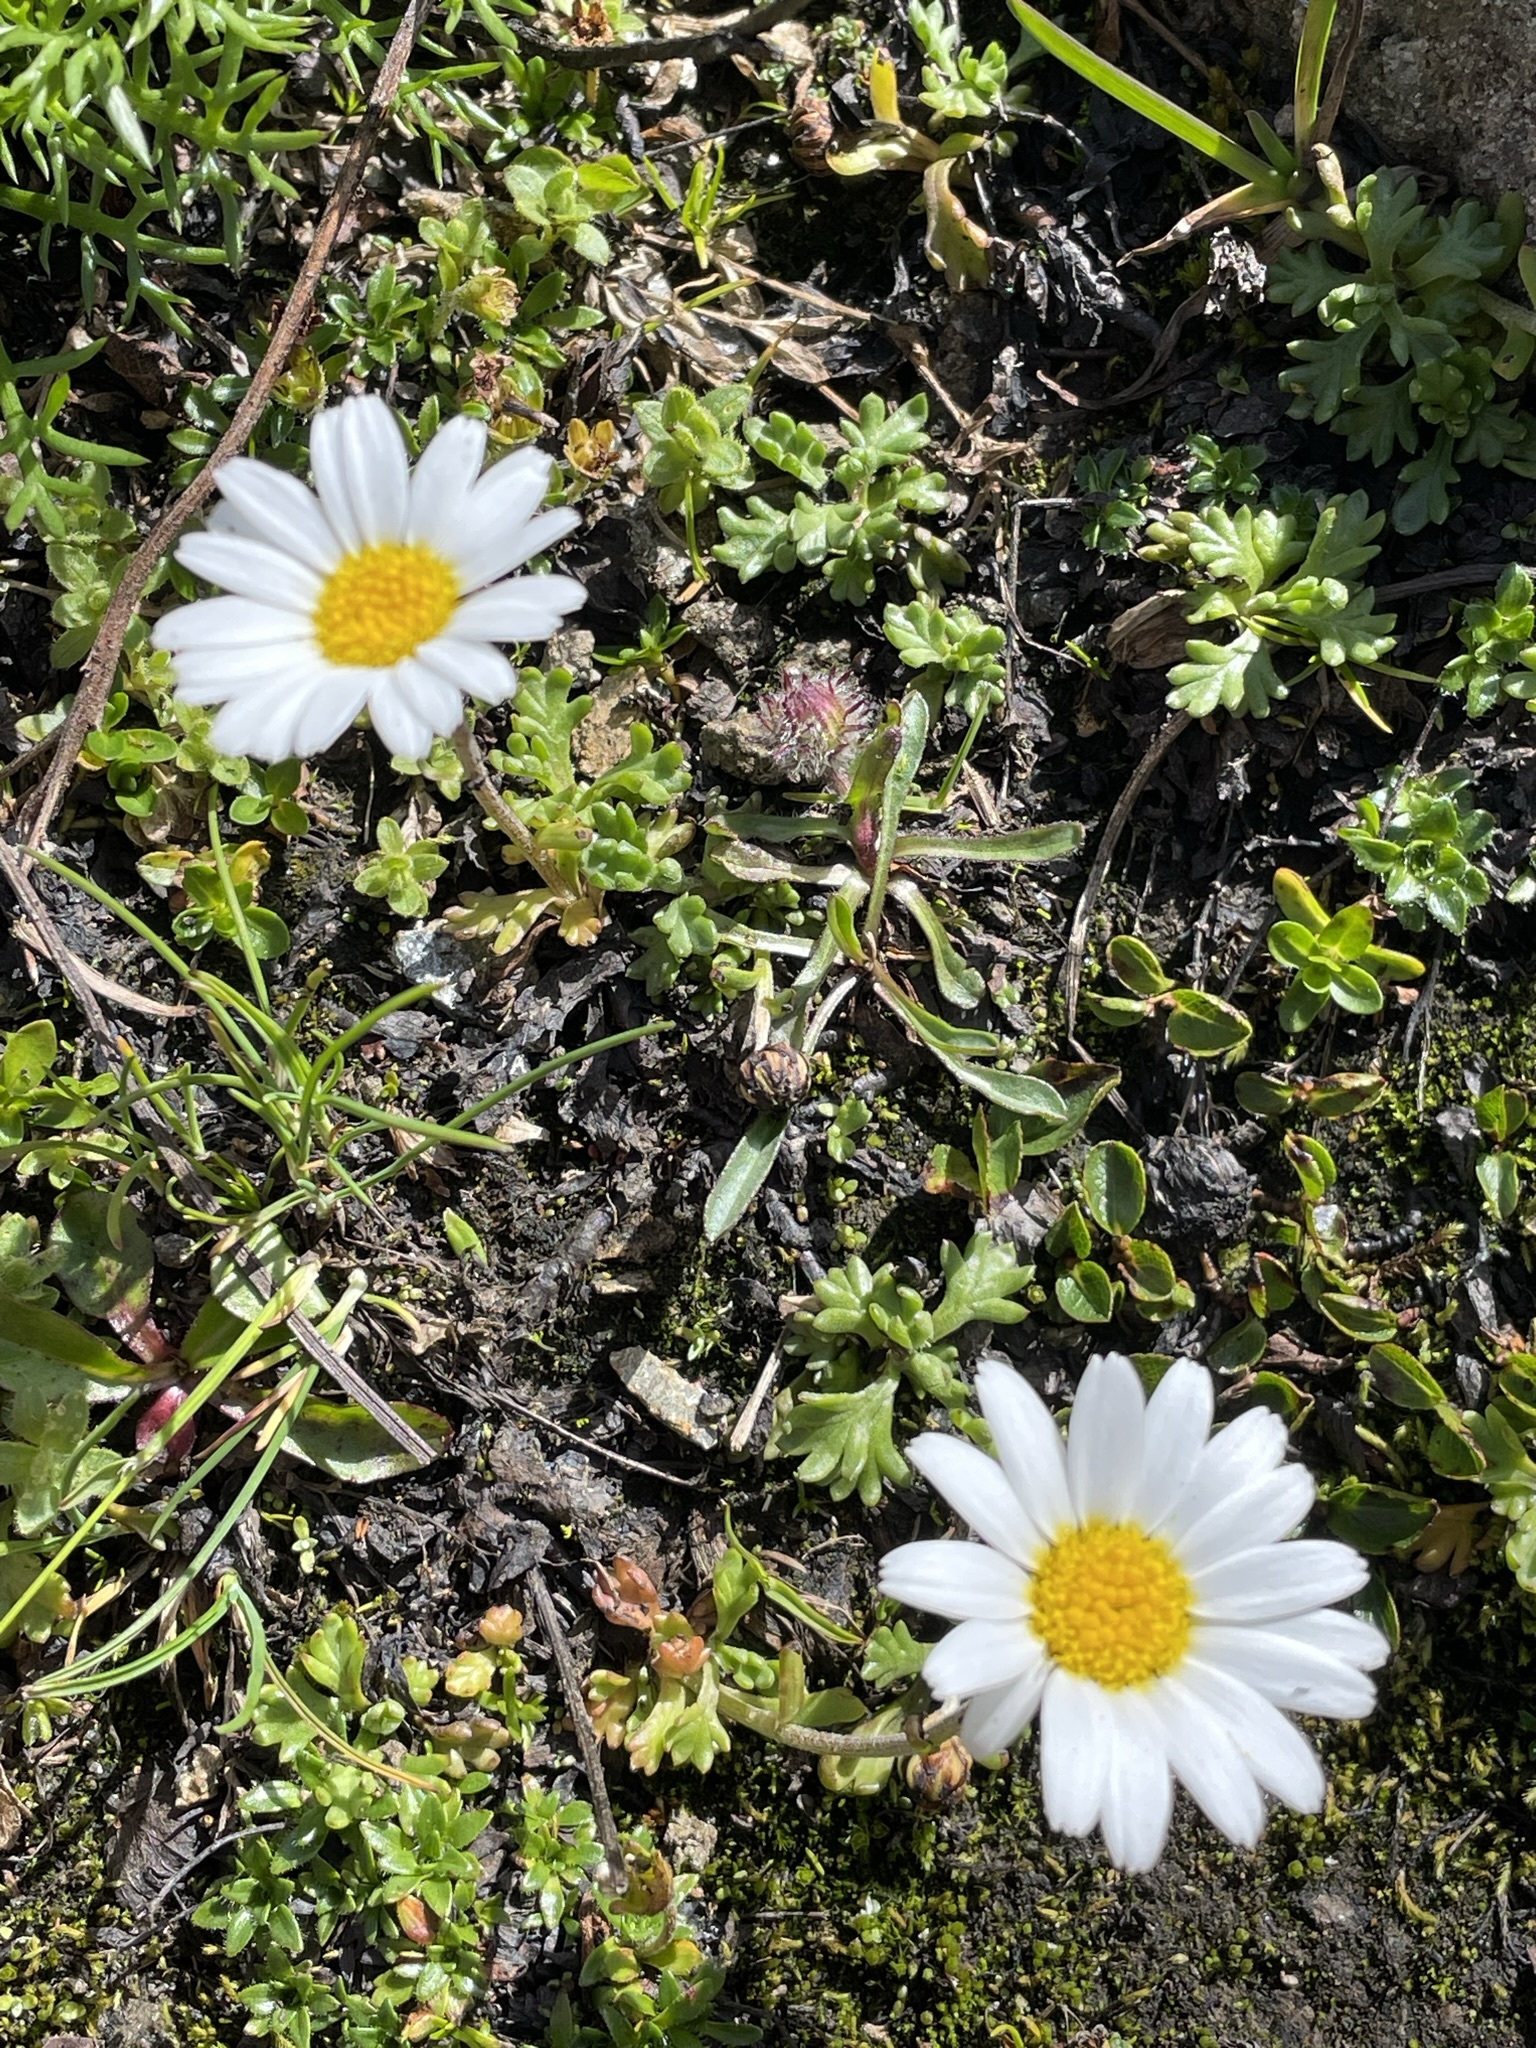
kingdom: Plantae
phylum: Tracheophyta
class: Magnoliopsida
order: Asterales
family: Asteraceae
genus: Leucanthemopsis
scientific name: Leucanthemopsis alpina
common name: Alpine moon daisy
